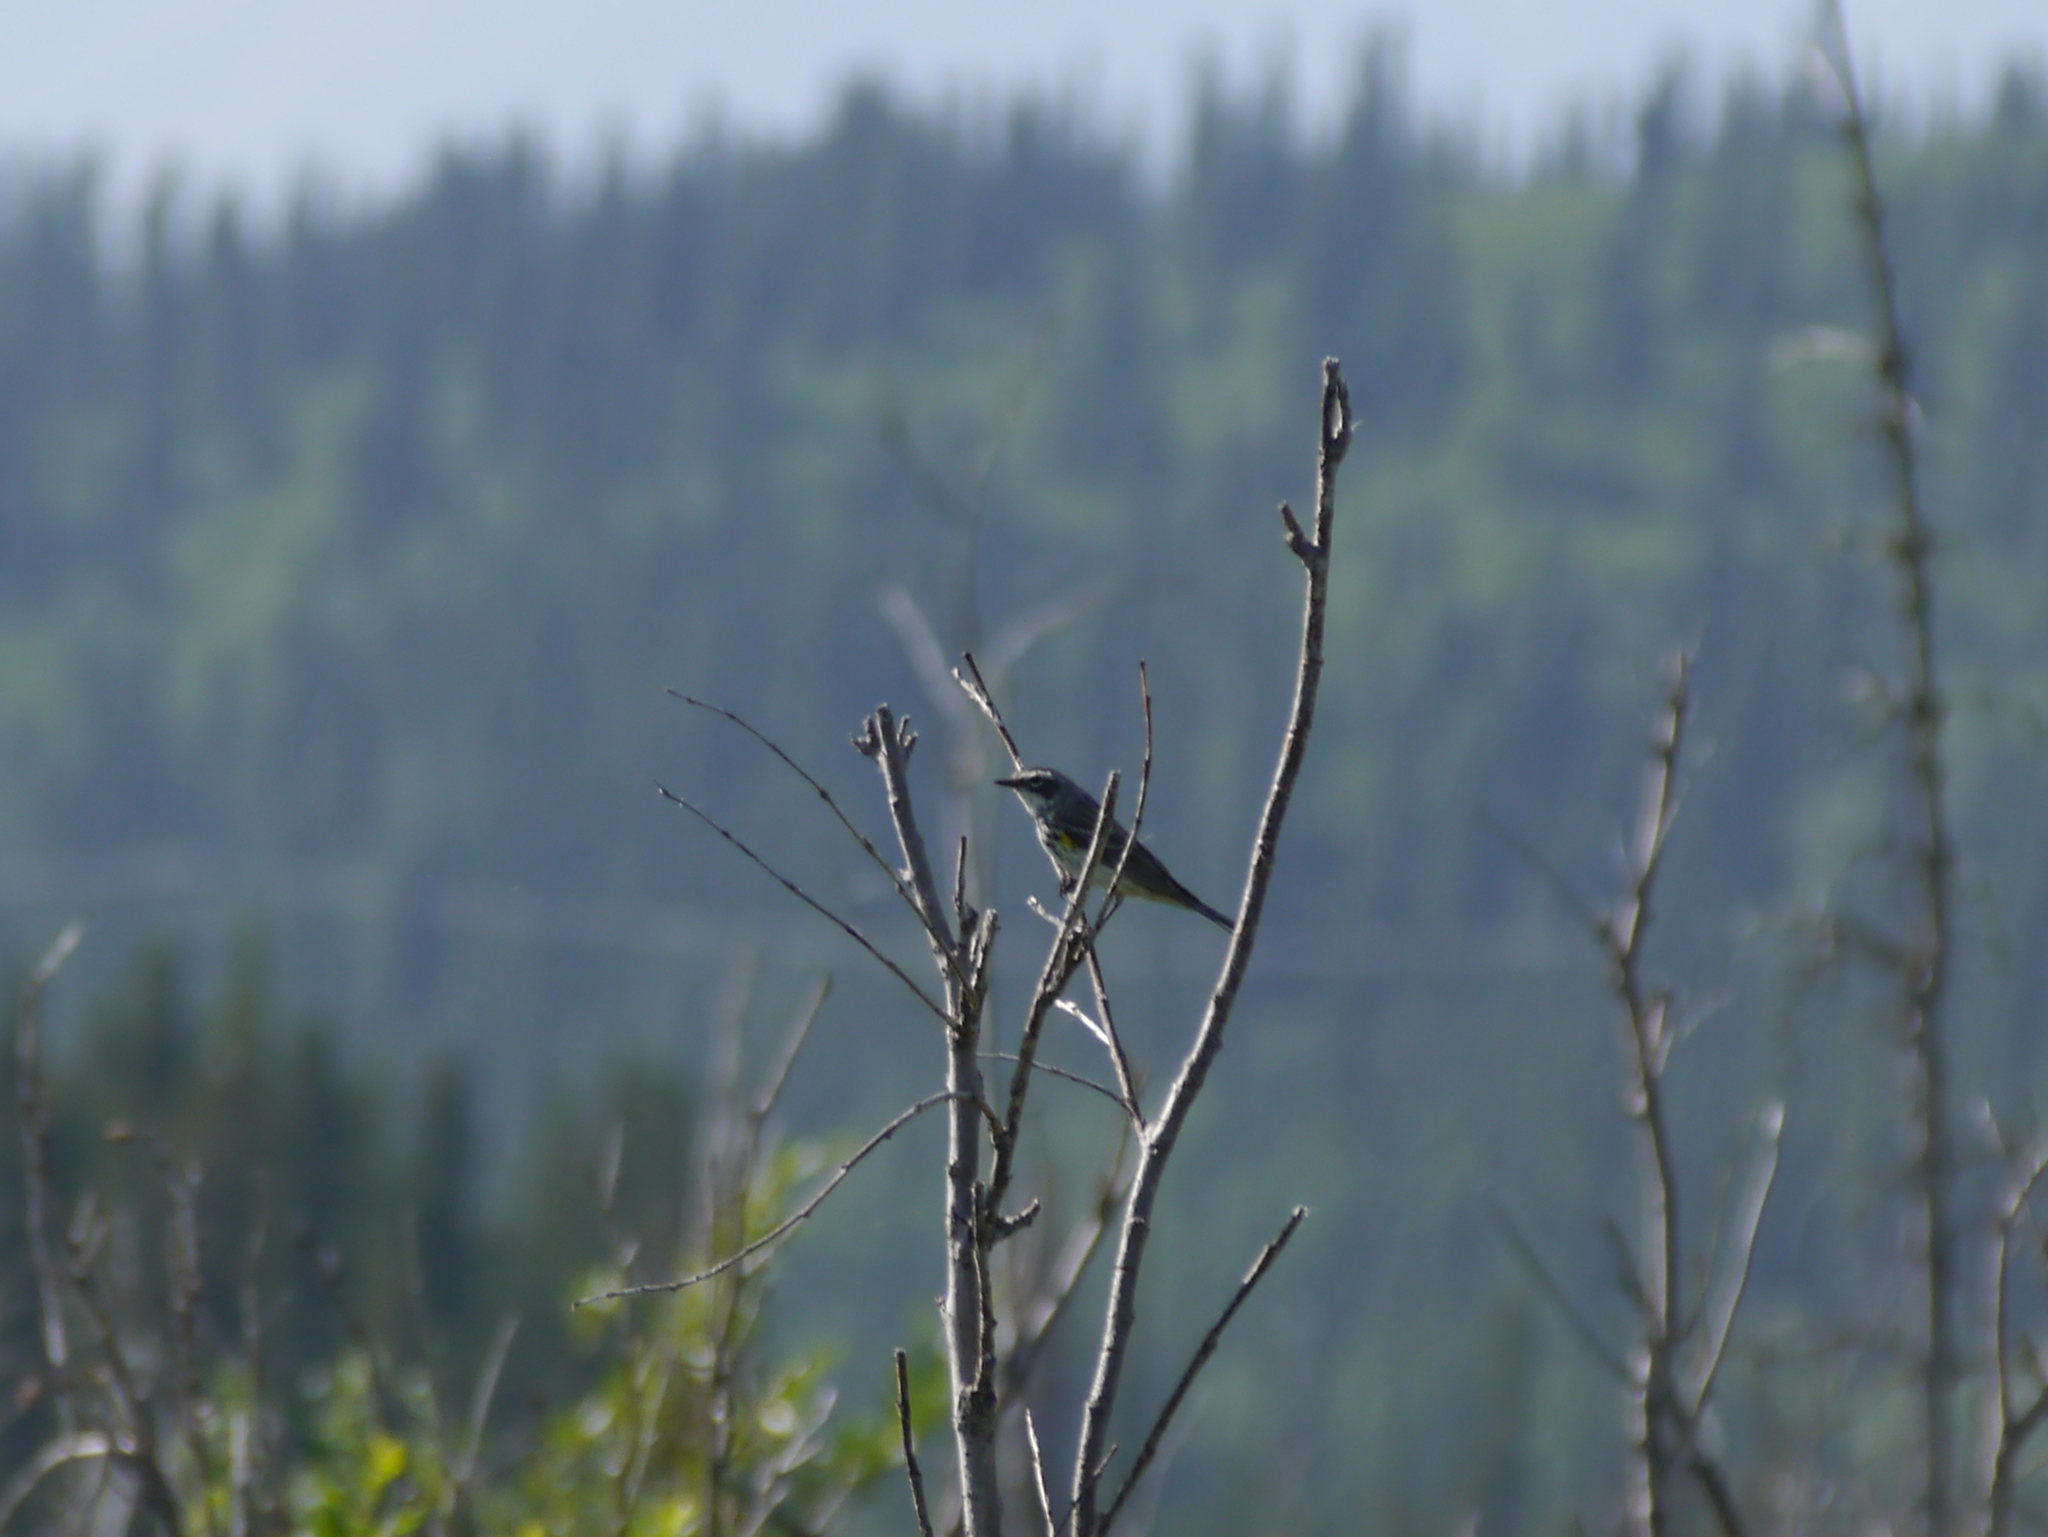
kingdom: Animalia
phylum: Chordata
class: Aves
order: Passeriformes
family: Parulidae
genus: Setophaga
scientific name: Setophaga coronata
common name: Myrtle warbler
